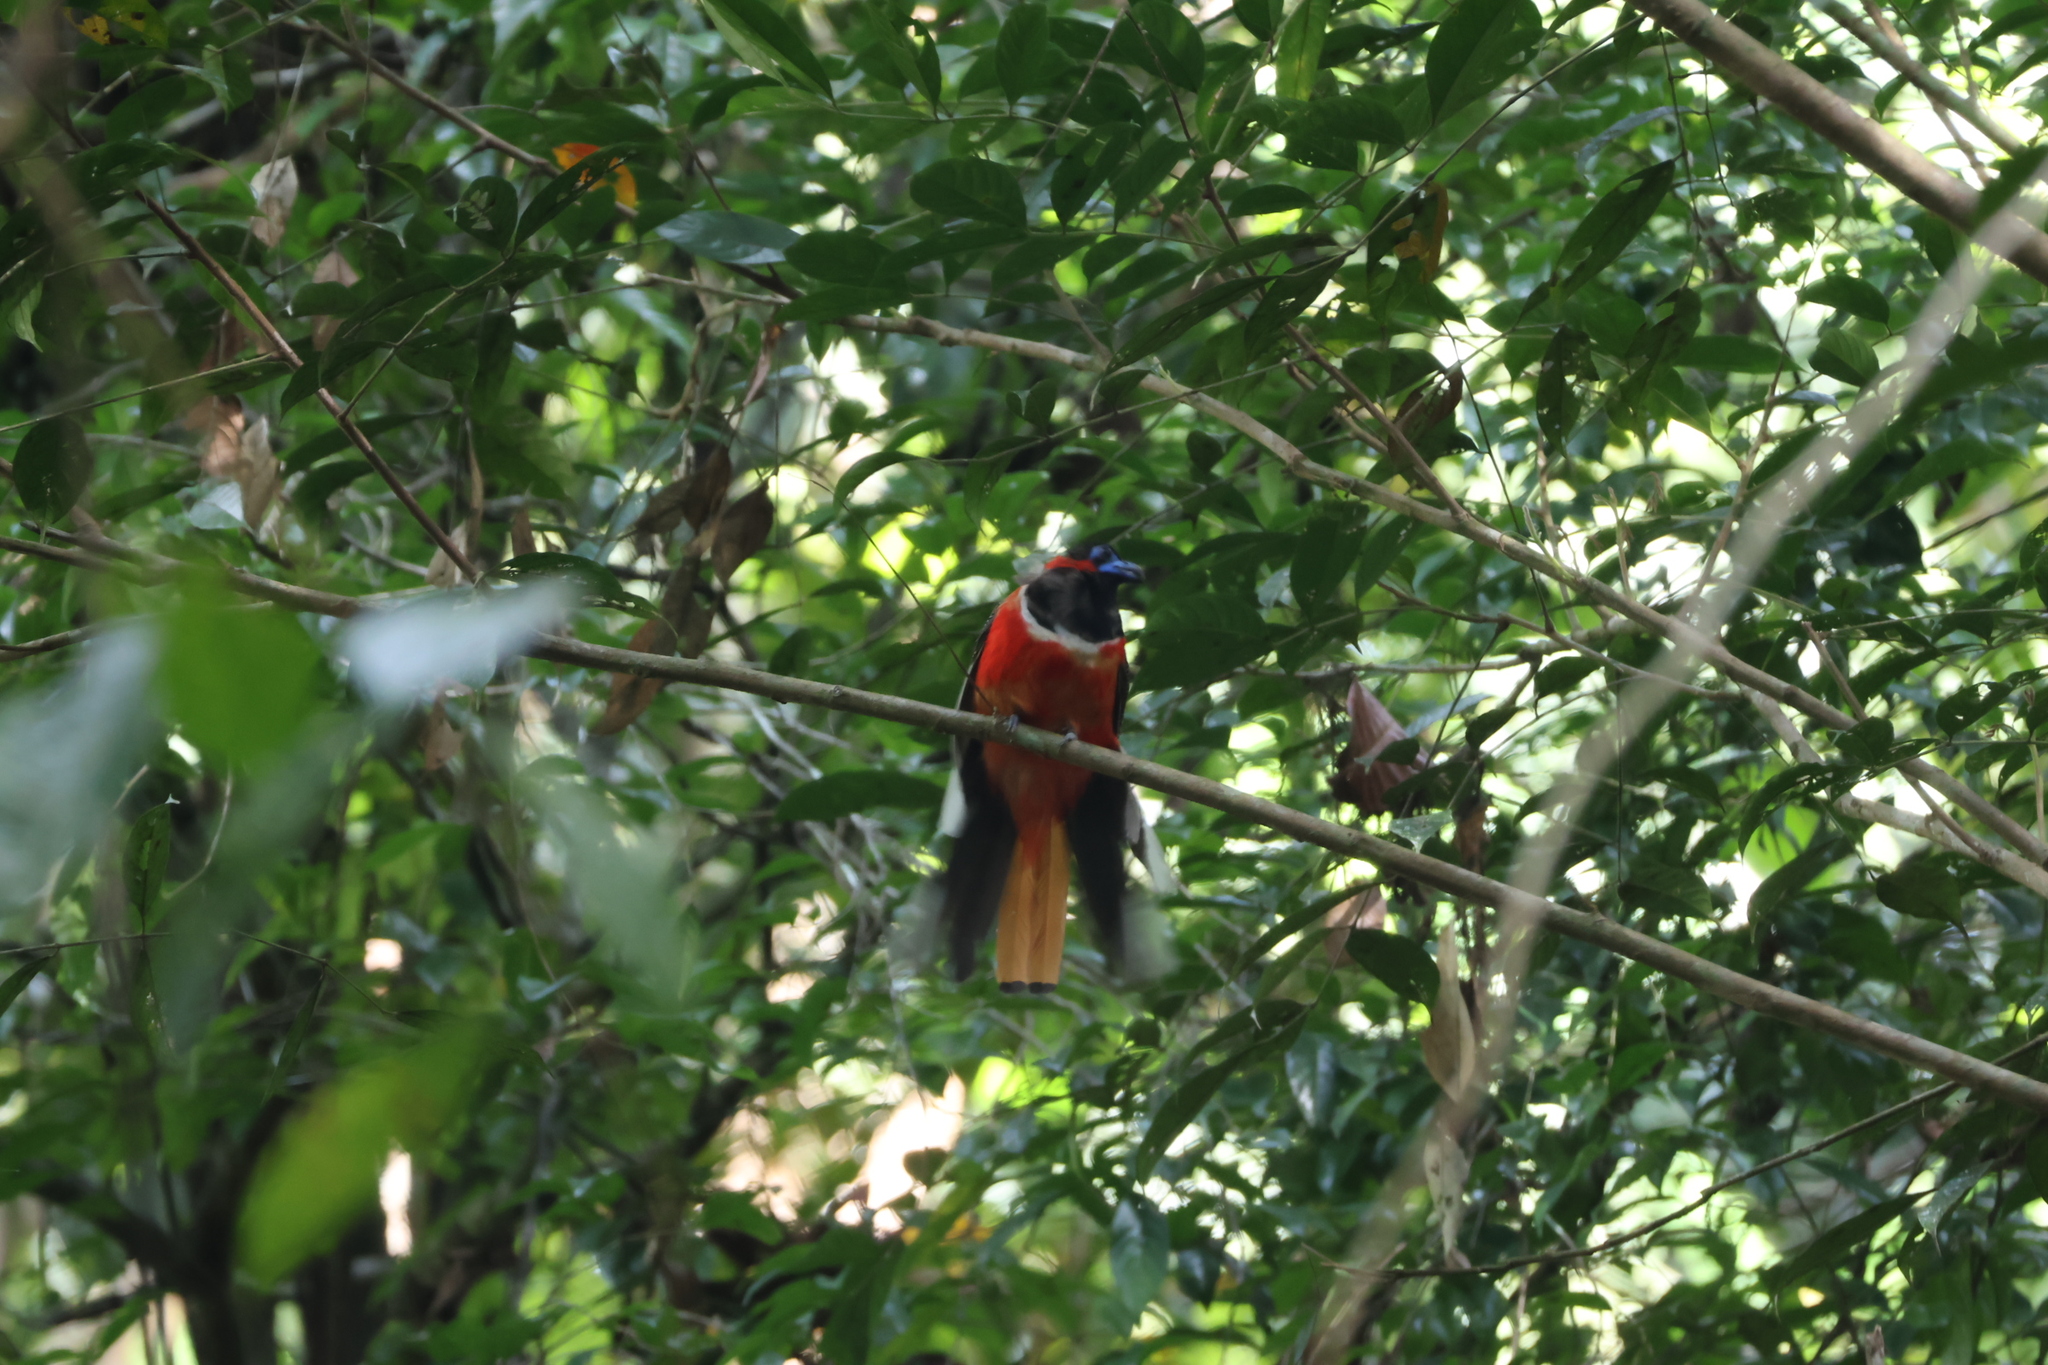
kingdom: Animalia
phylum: Chordata
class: Aves
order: Trogoniformes
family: Trogonidae
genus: Harpactes
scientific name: Harpactes duvaucelii
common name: Scarlet-rumped trogon
